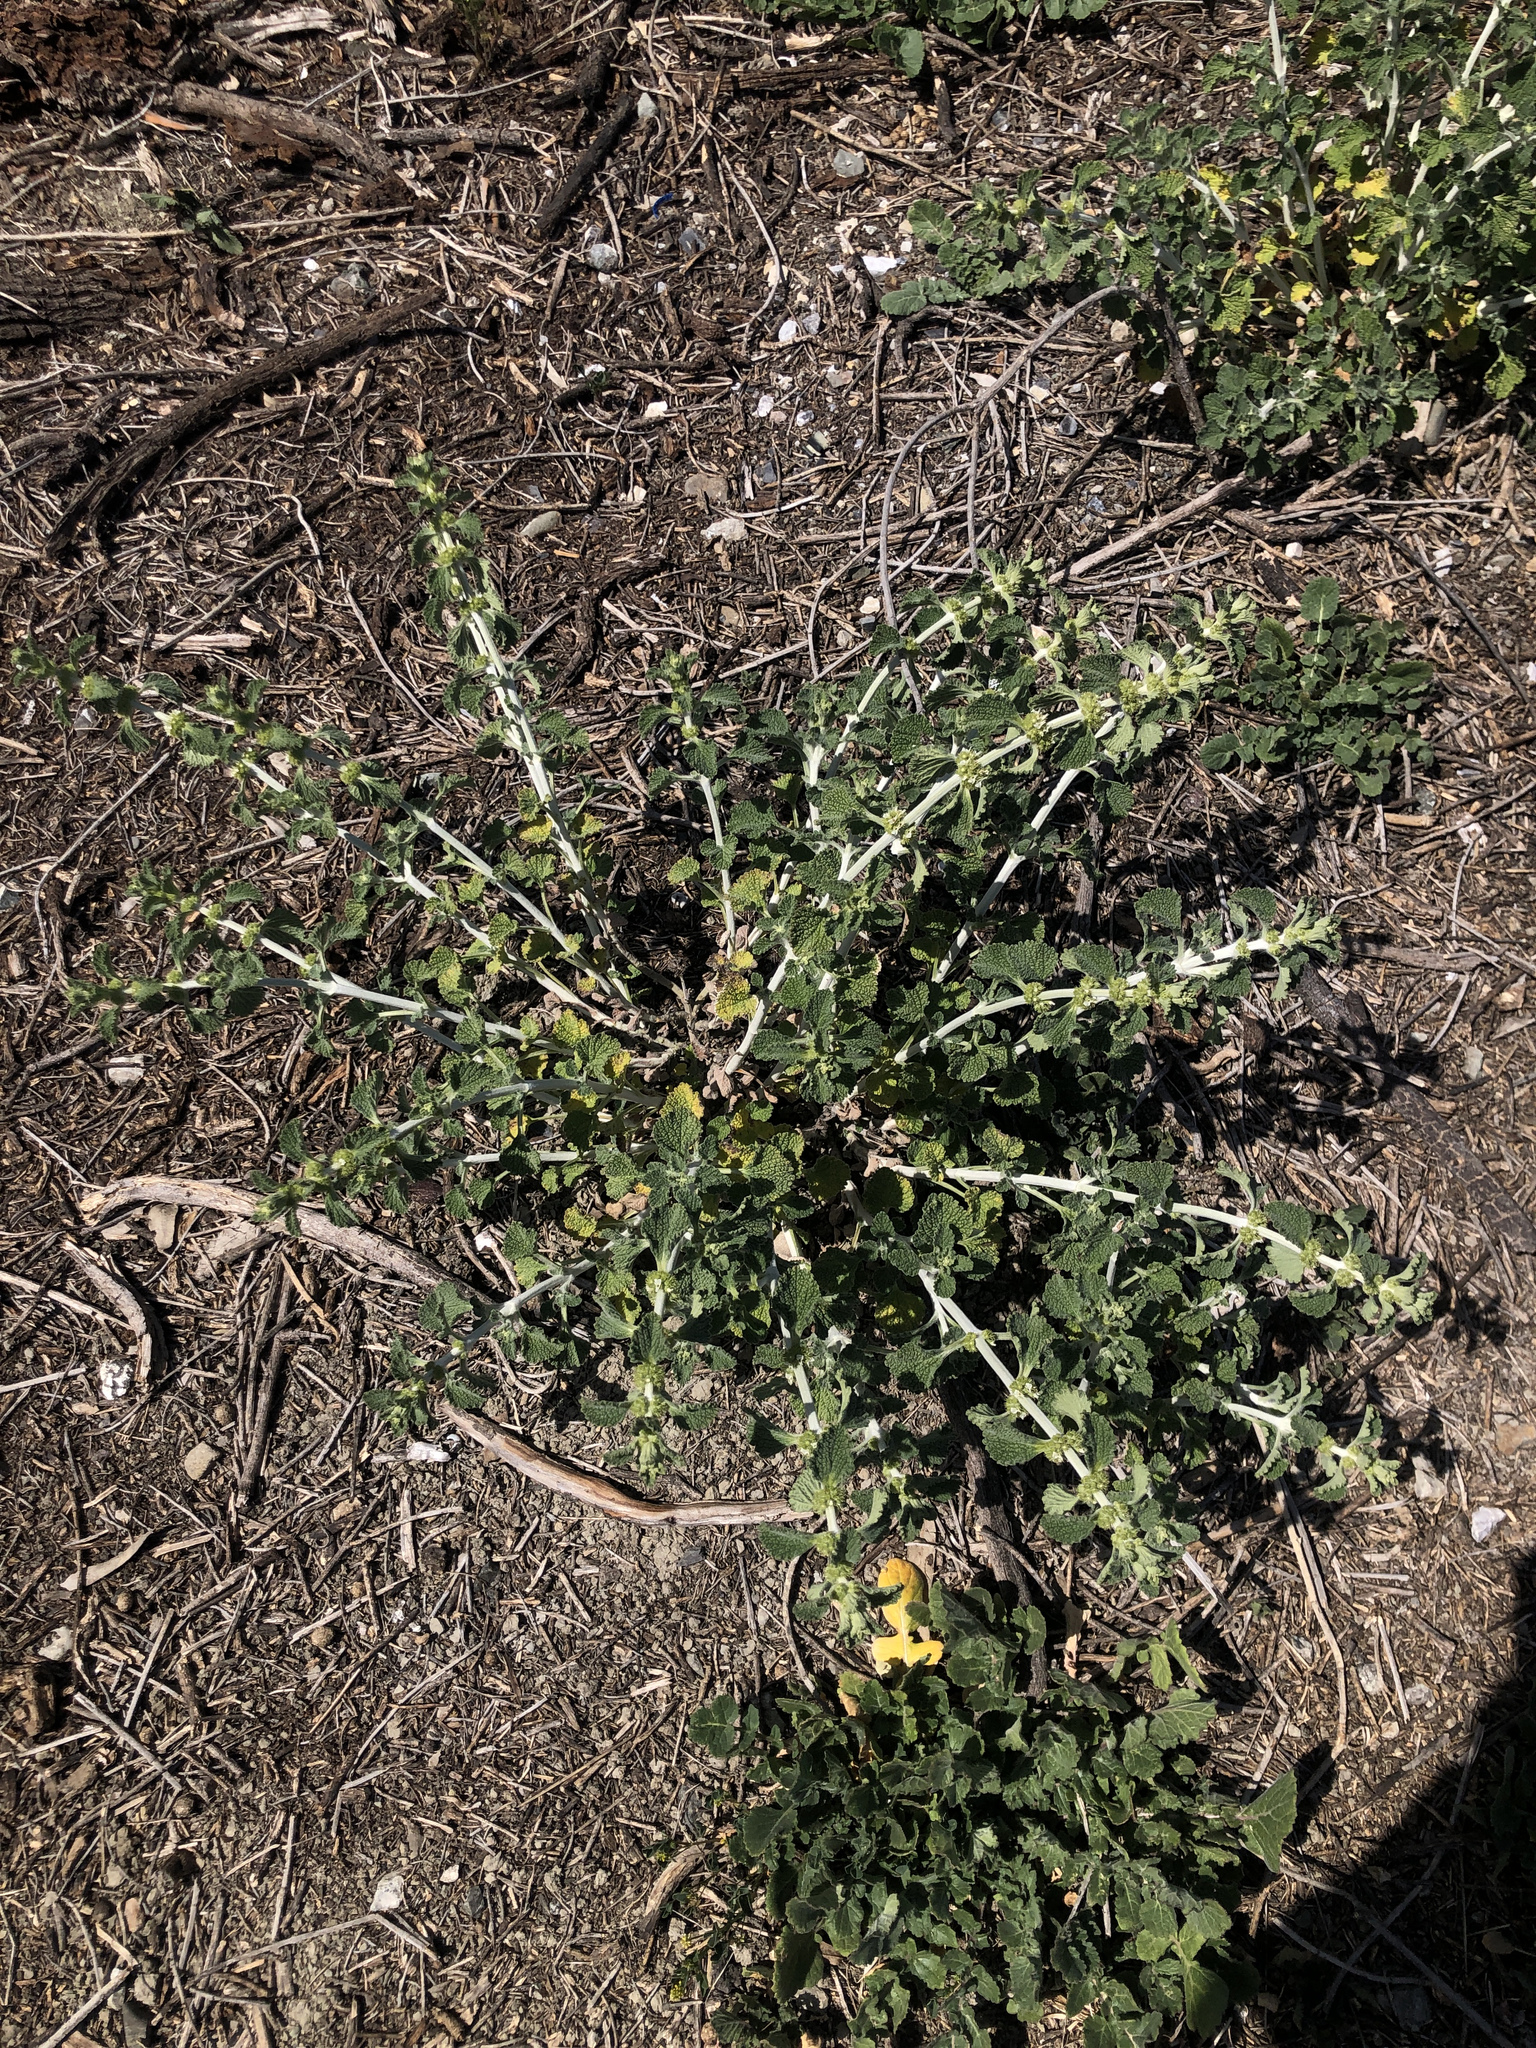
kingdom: Plantae
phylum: Tracheophyta
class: Magnoliopsida
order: Lamiales
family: Lamiaceae
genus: Marrubium
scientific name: Marrubium vulgare
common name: Horehound
